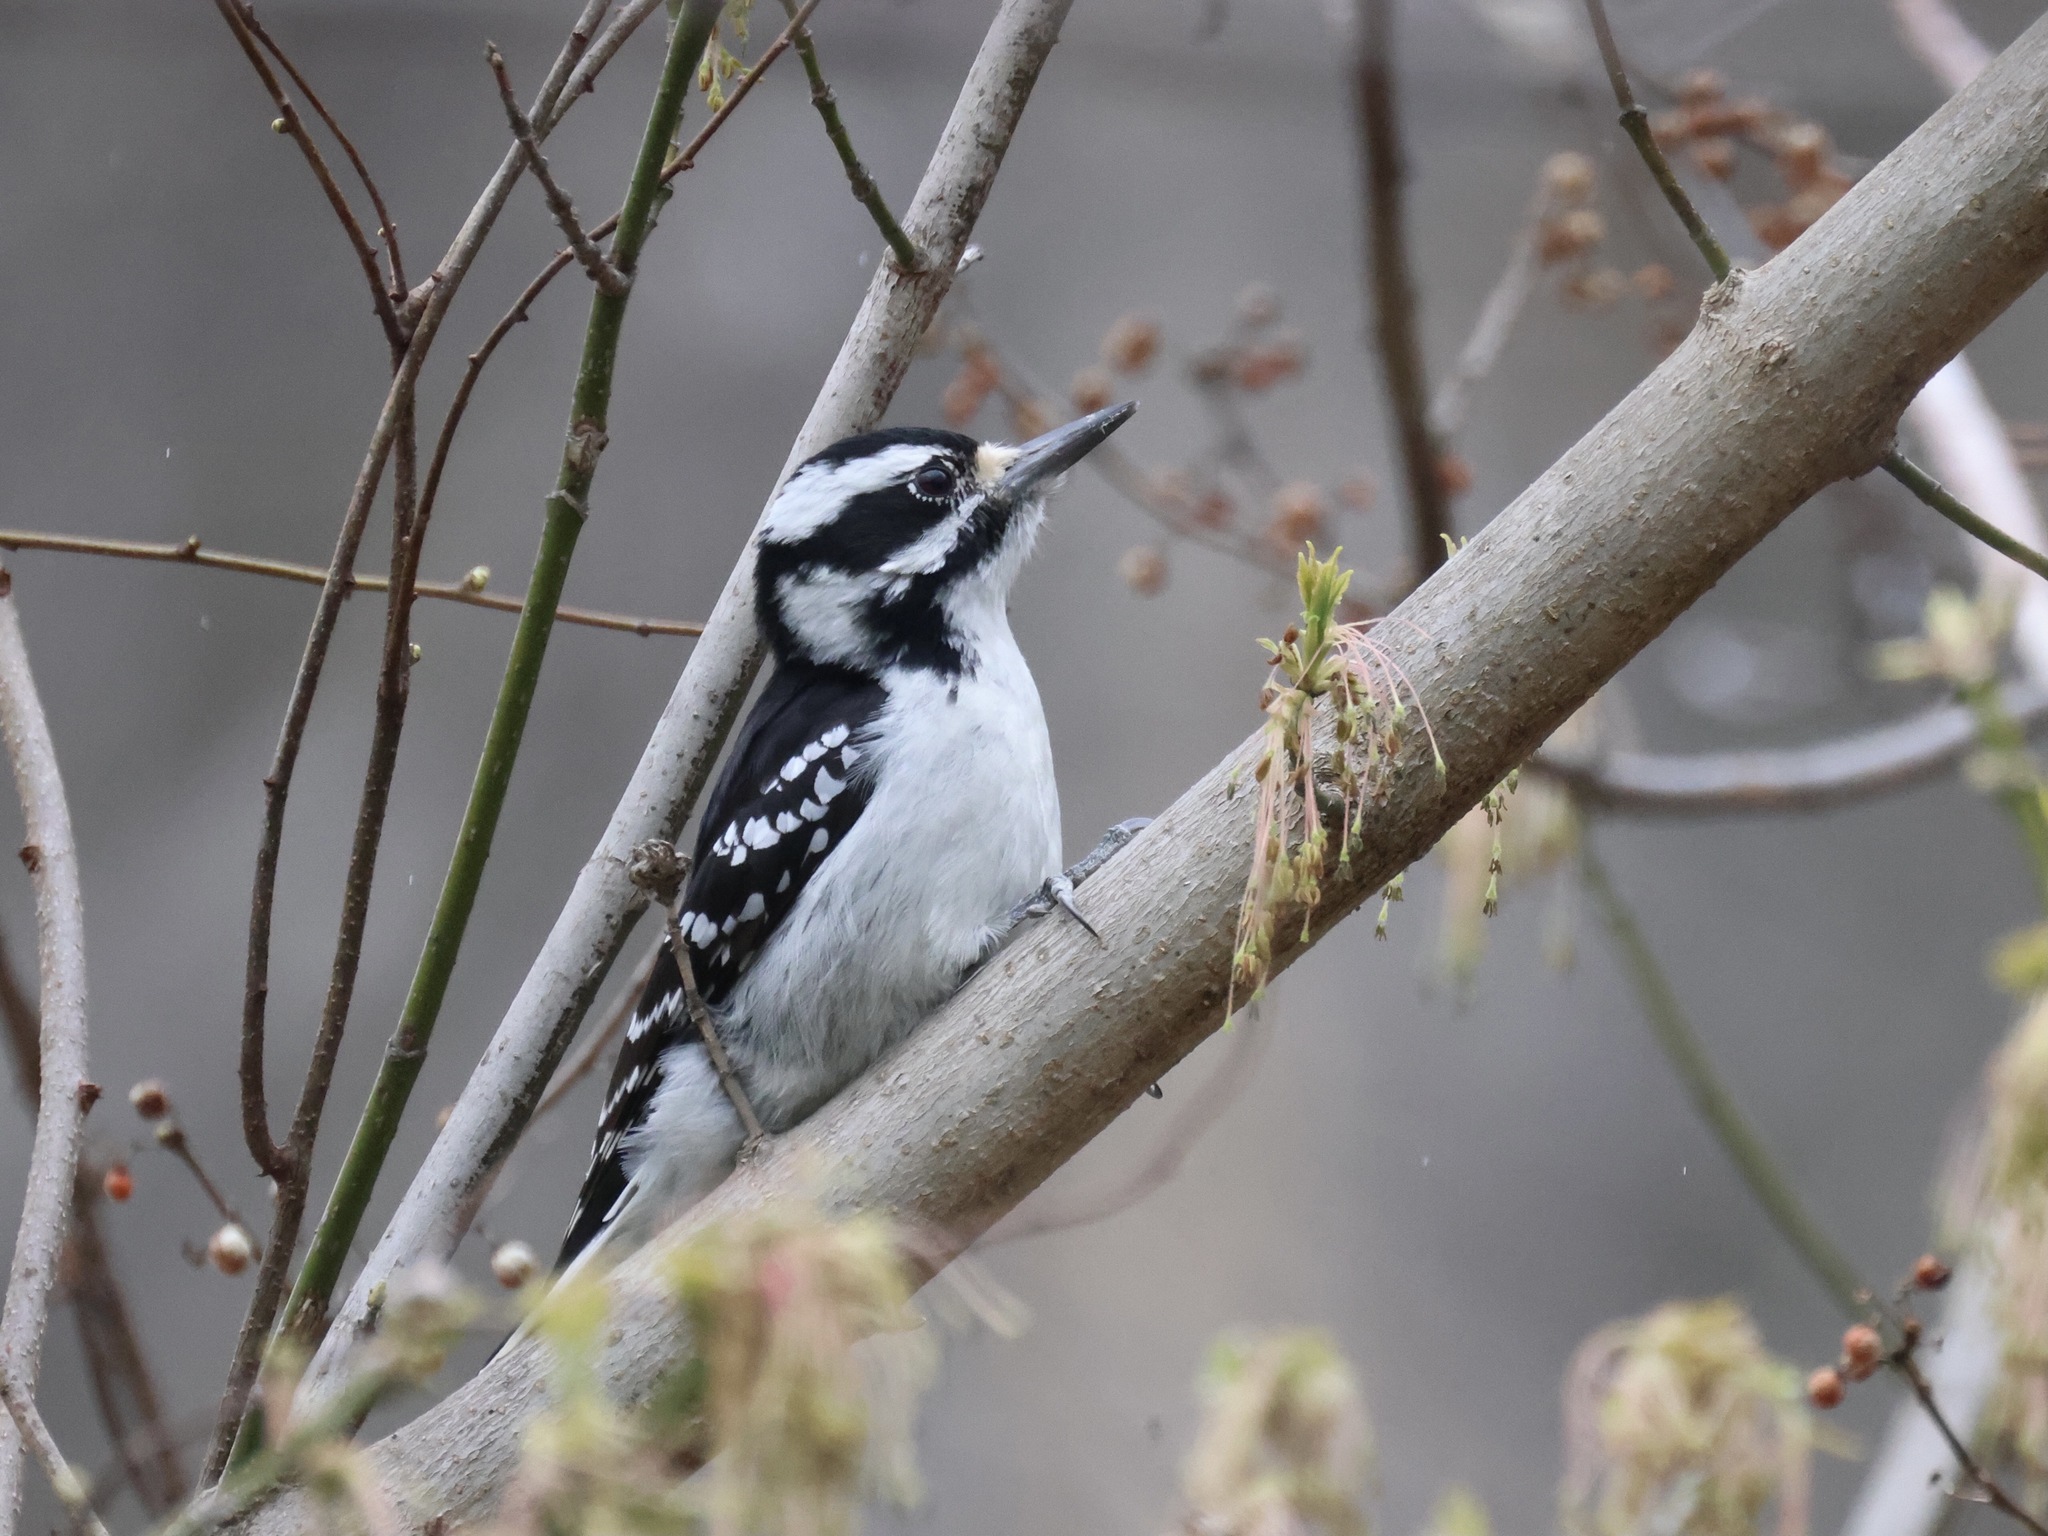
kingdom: Animalia
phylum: Chordata
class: Aves
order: Piciformes
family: Picidae
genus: Leuconotopicus
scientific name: Leuconotopicus villosus
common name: Hairy woodpecker
